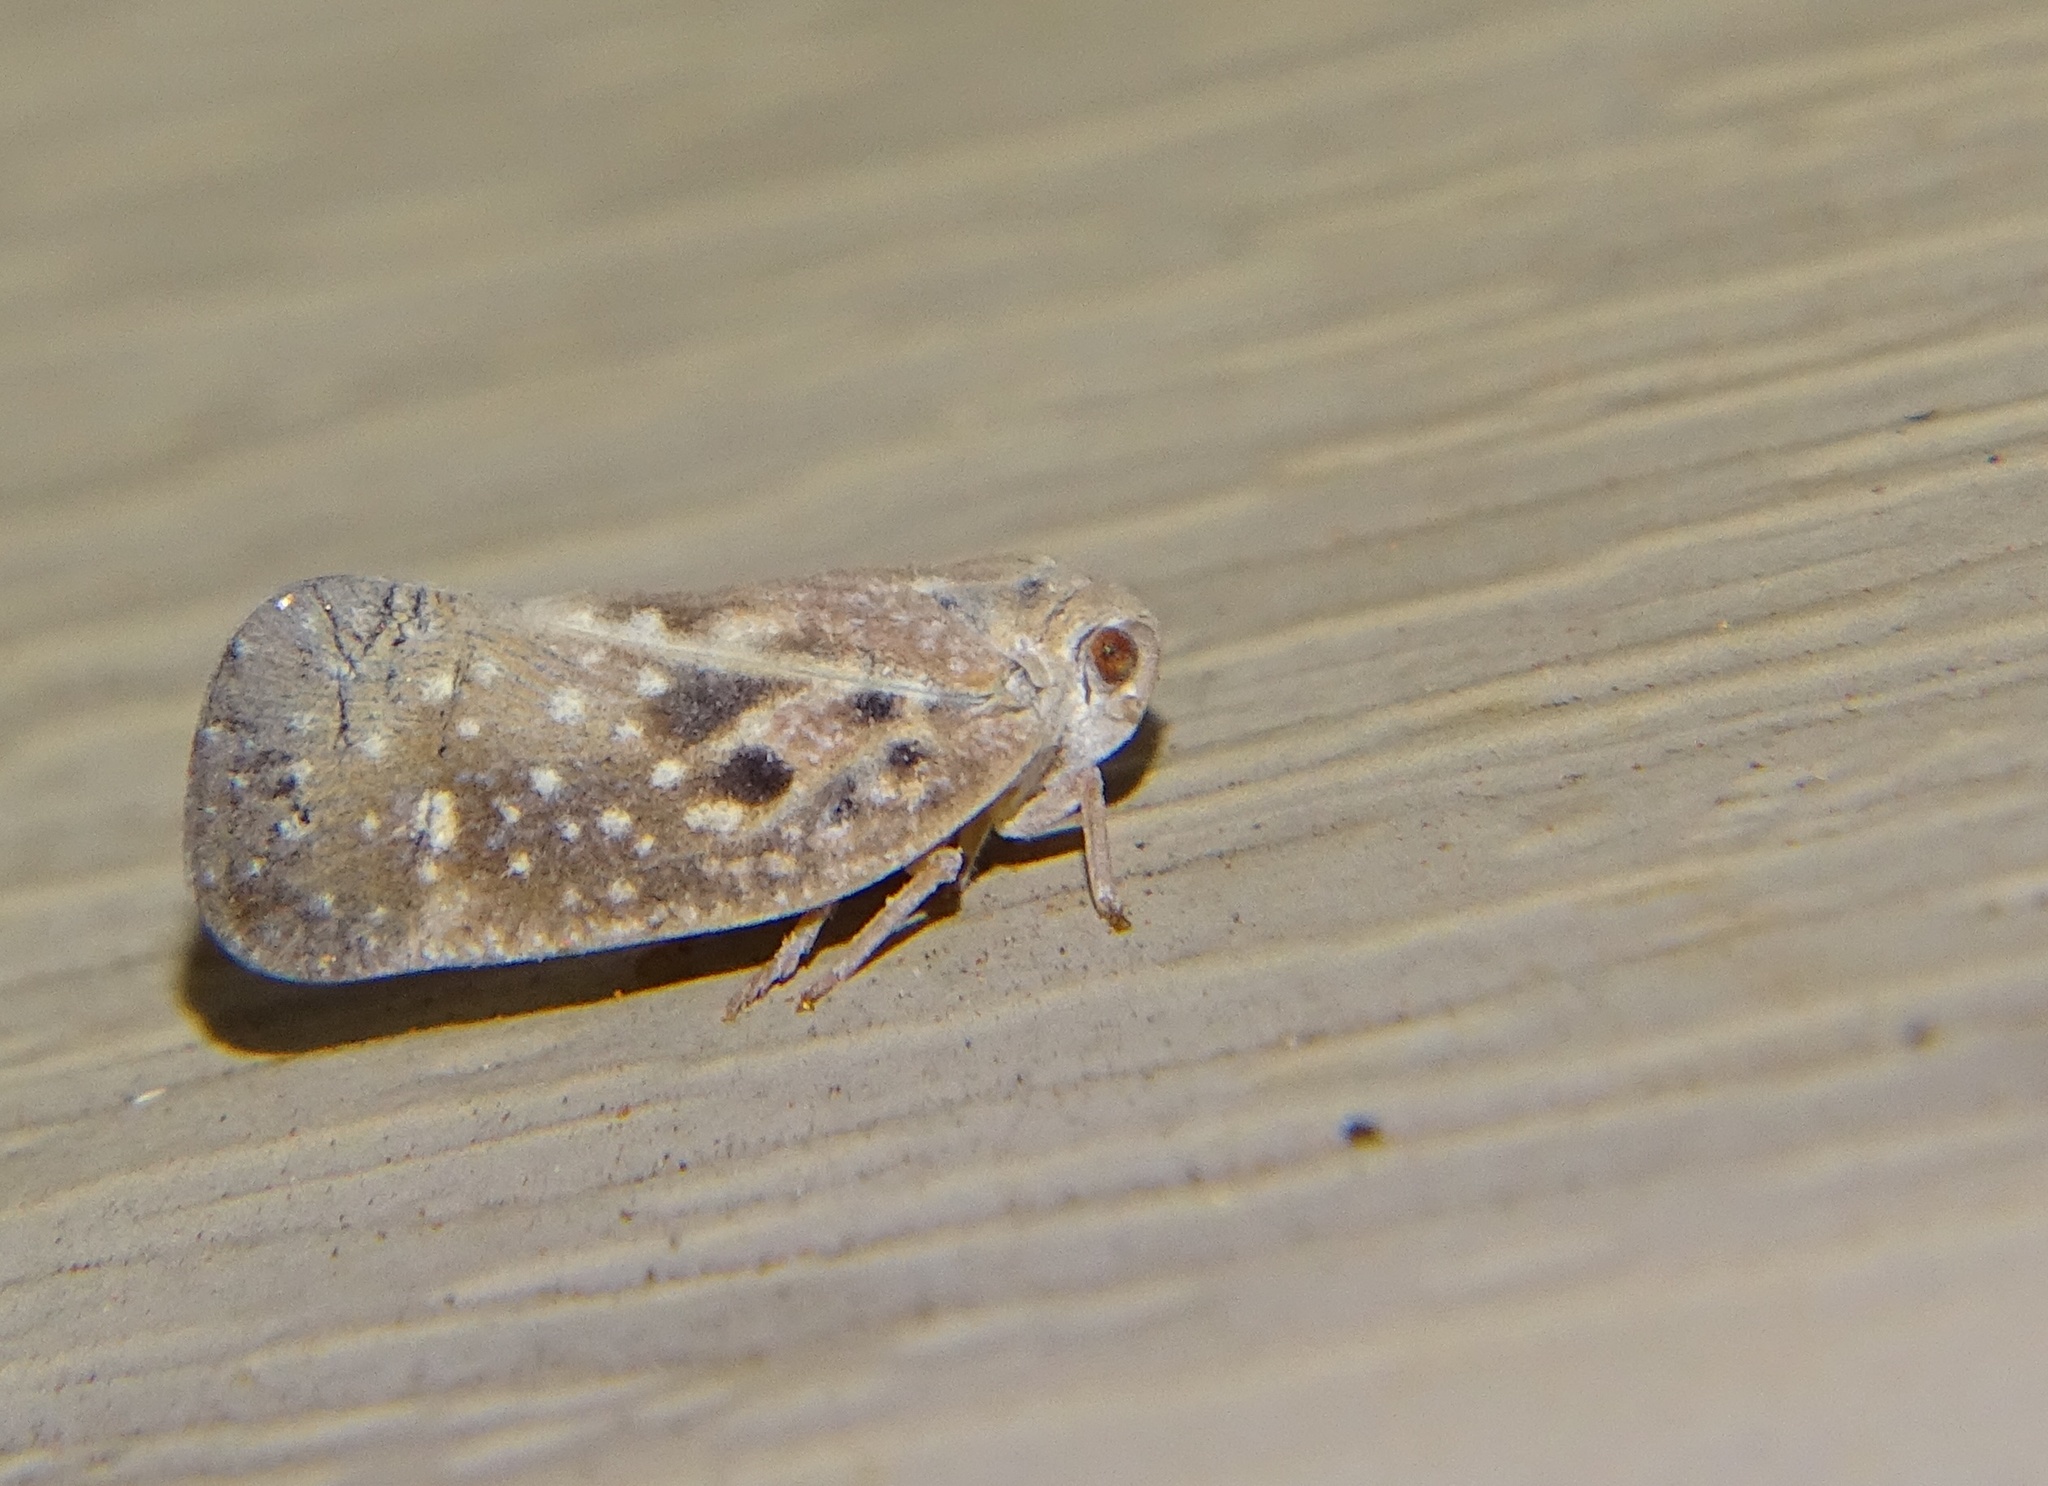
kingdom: Animalia
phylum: Arthropoda
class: Insecta
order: Hemiptera
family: Flatidae
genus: Metcalfa
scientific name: Metcalfa pruinosa
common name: Citrus flatid planthopper
